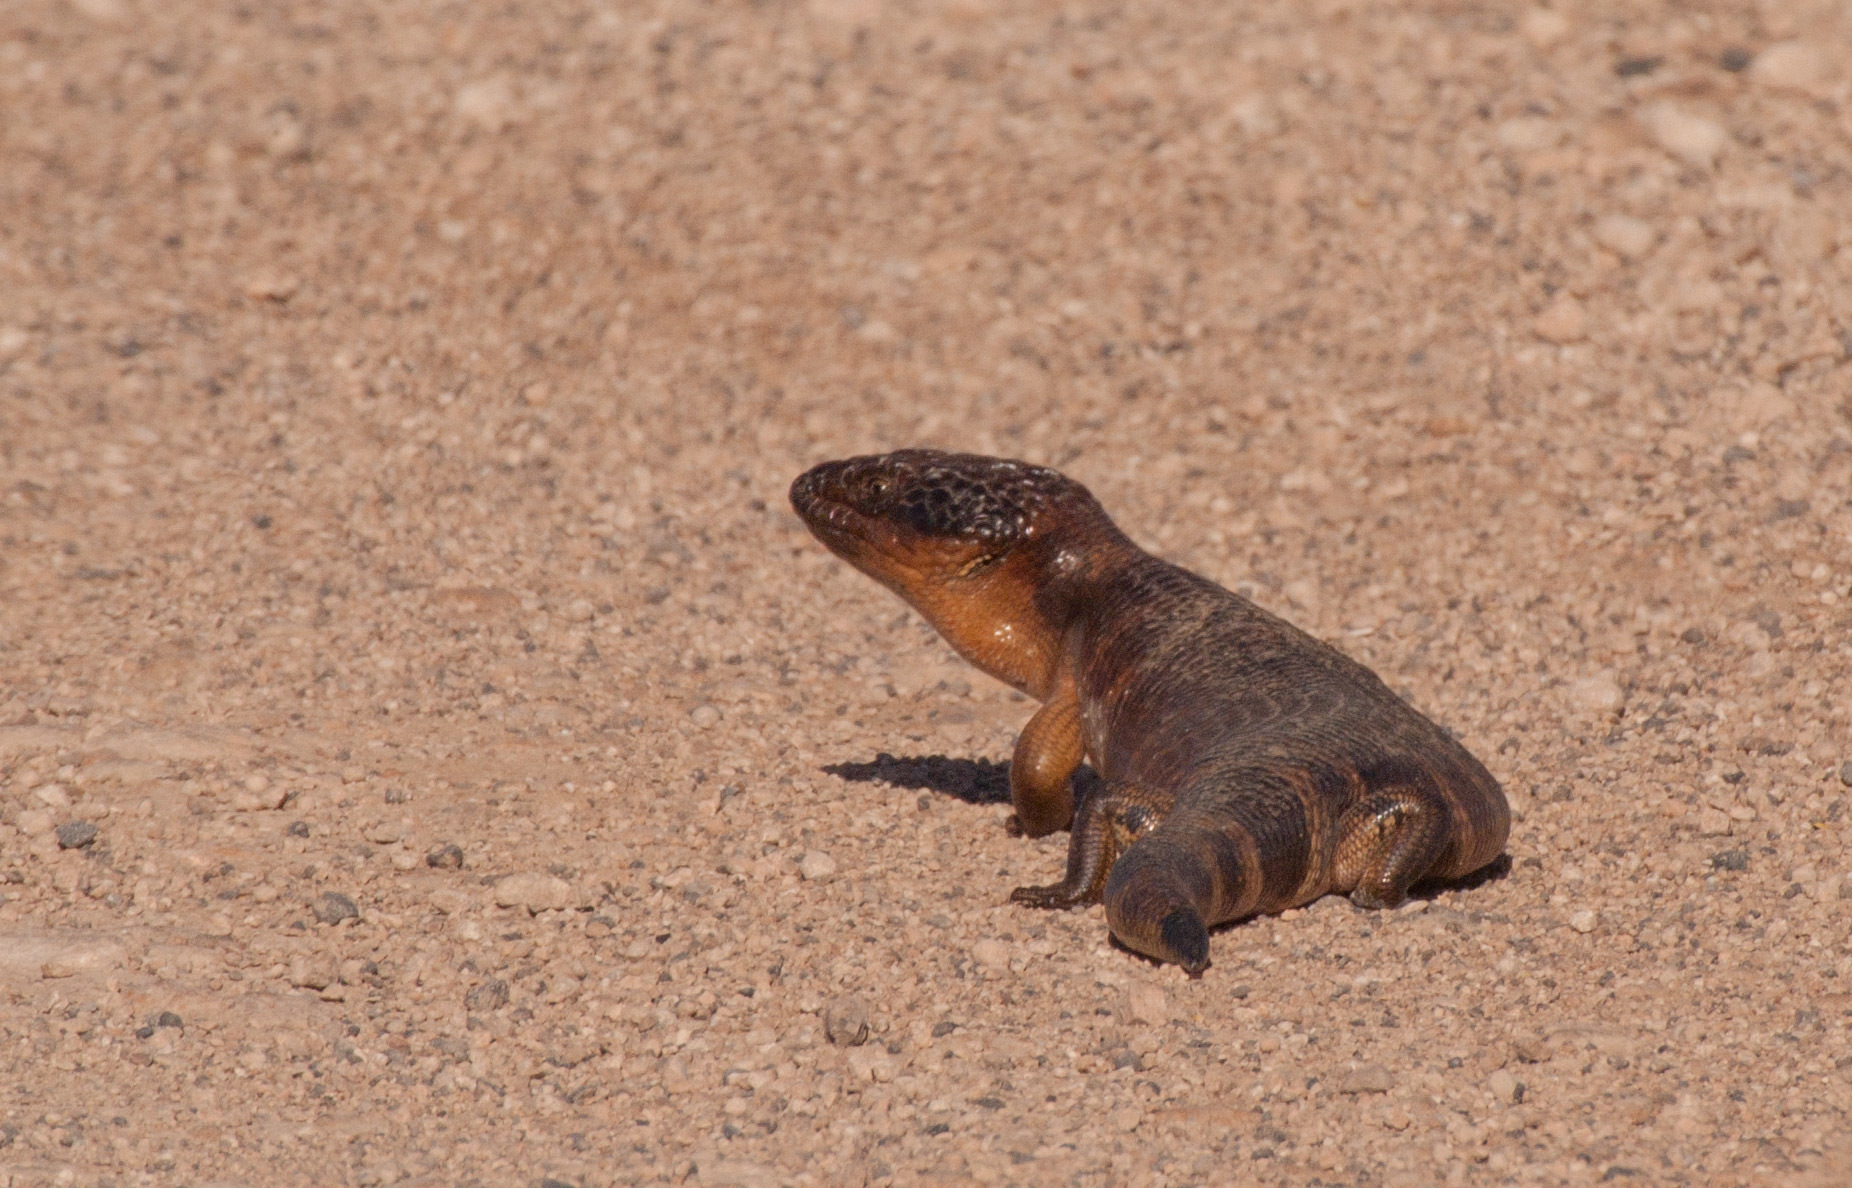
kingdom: Animalia
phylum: Chordata
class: Squamata
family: Scincidae
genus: Tiliqua
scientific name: Tiliqua occipitalis
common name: Western blue-tongued lizard
